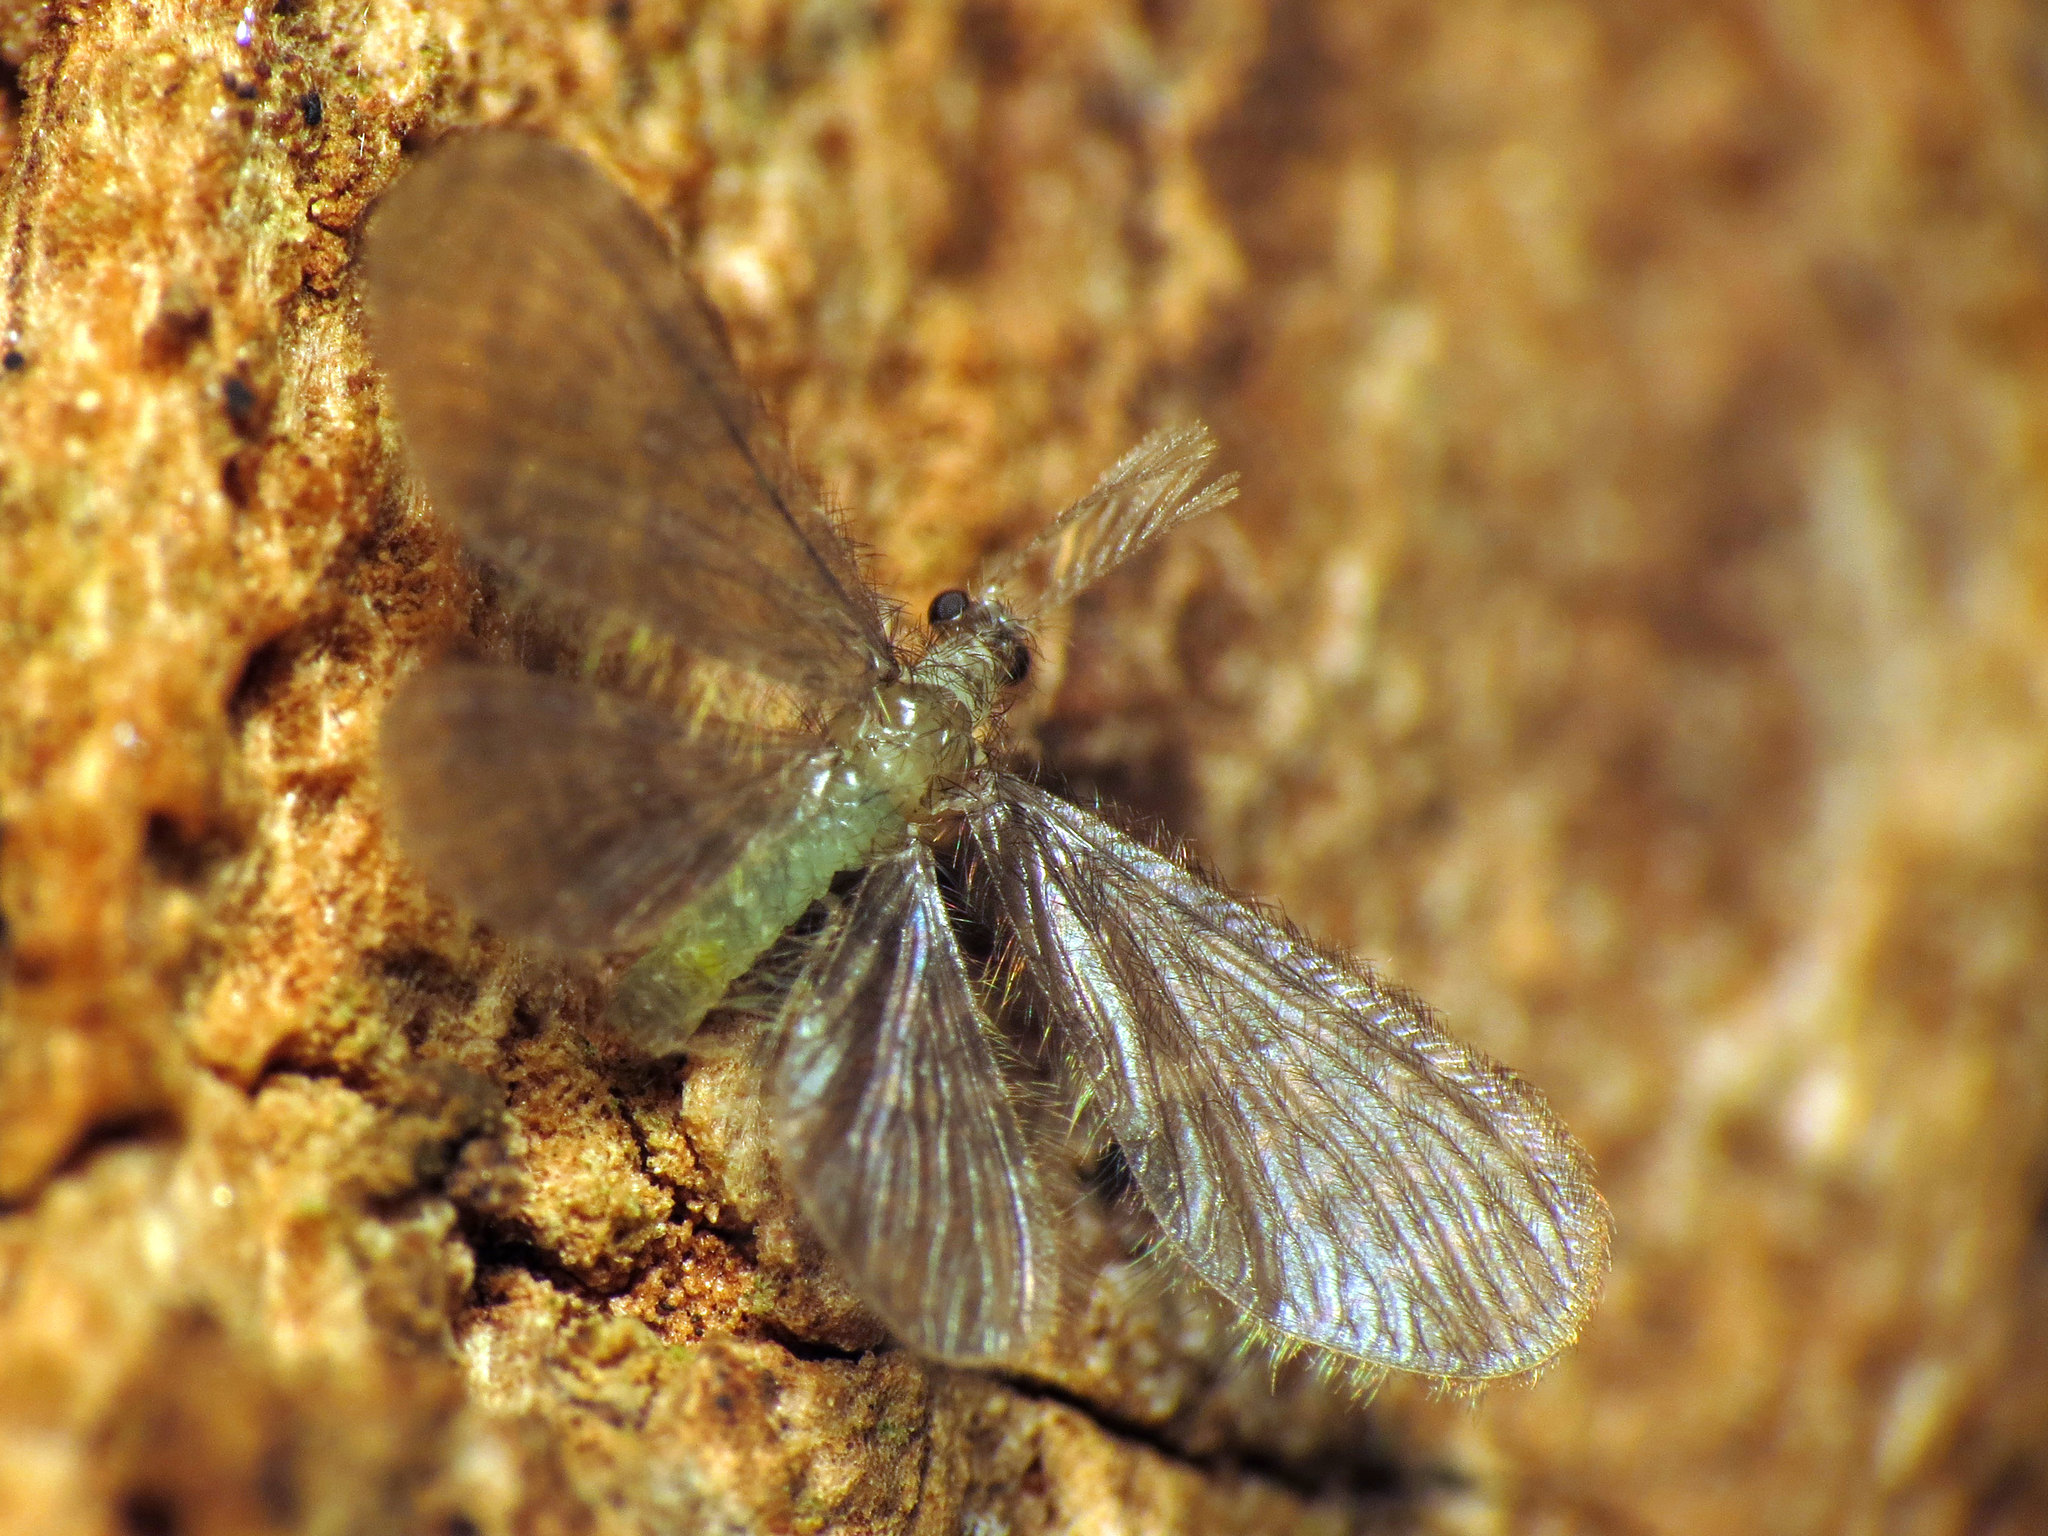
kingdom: Animalia
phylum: Arthropoda
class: Insecta
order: Neuroptera
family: Dilaridae
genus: Nallachius
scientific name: Nallachius americanus
